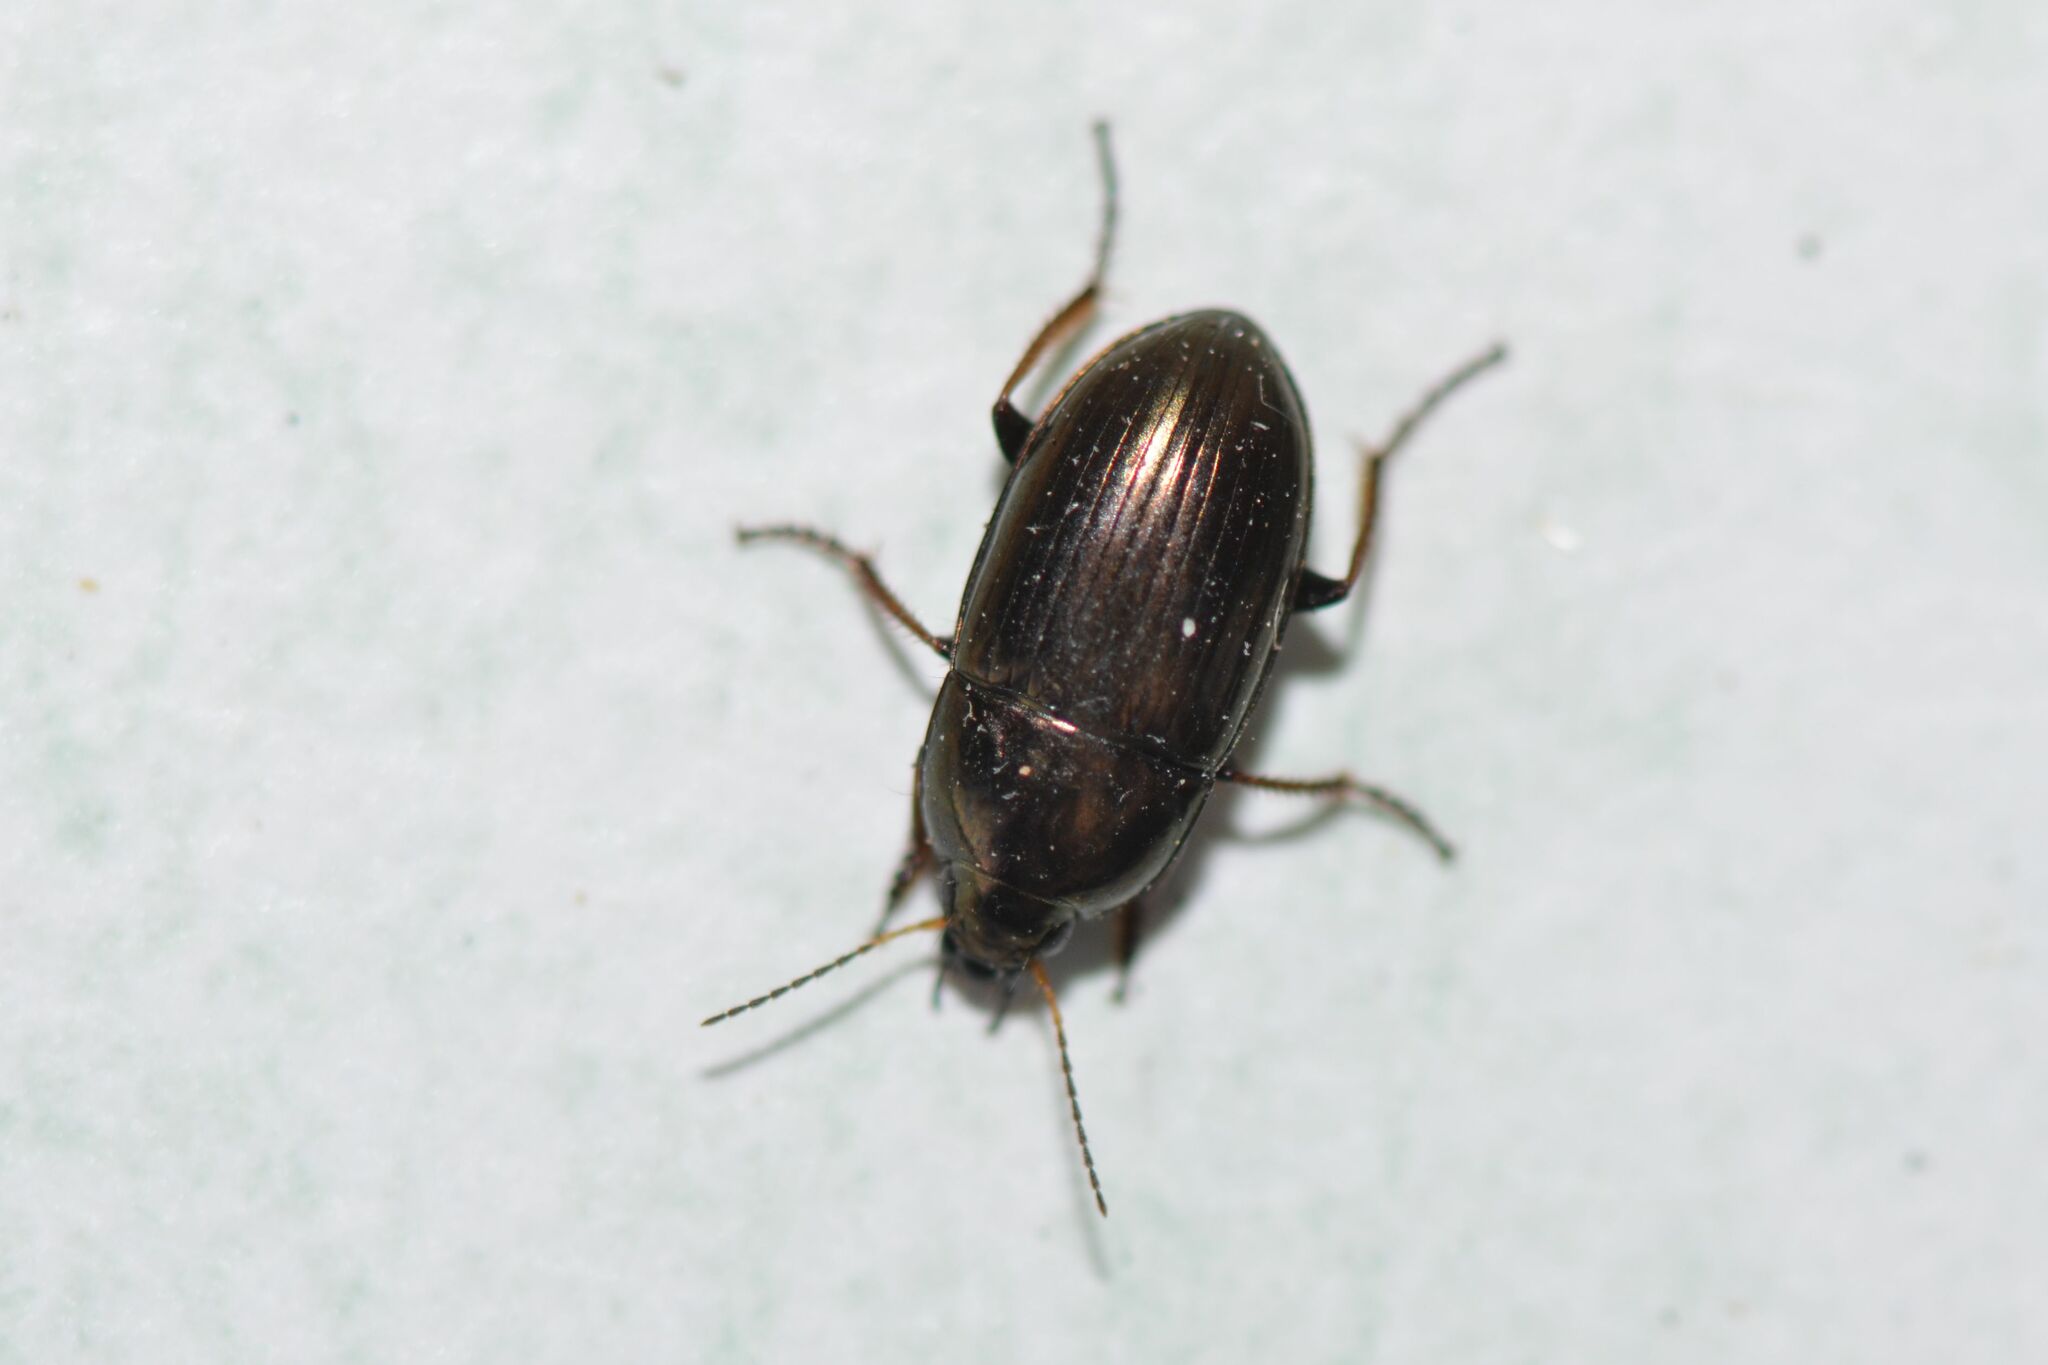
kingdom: Animalia
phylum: Arthropoda
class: Insecta
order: Coleoptera
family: Carabidae
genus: Amara
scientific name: Amara aenea
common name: Common sun beetle
